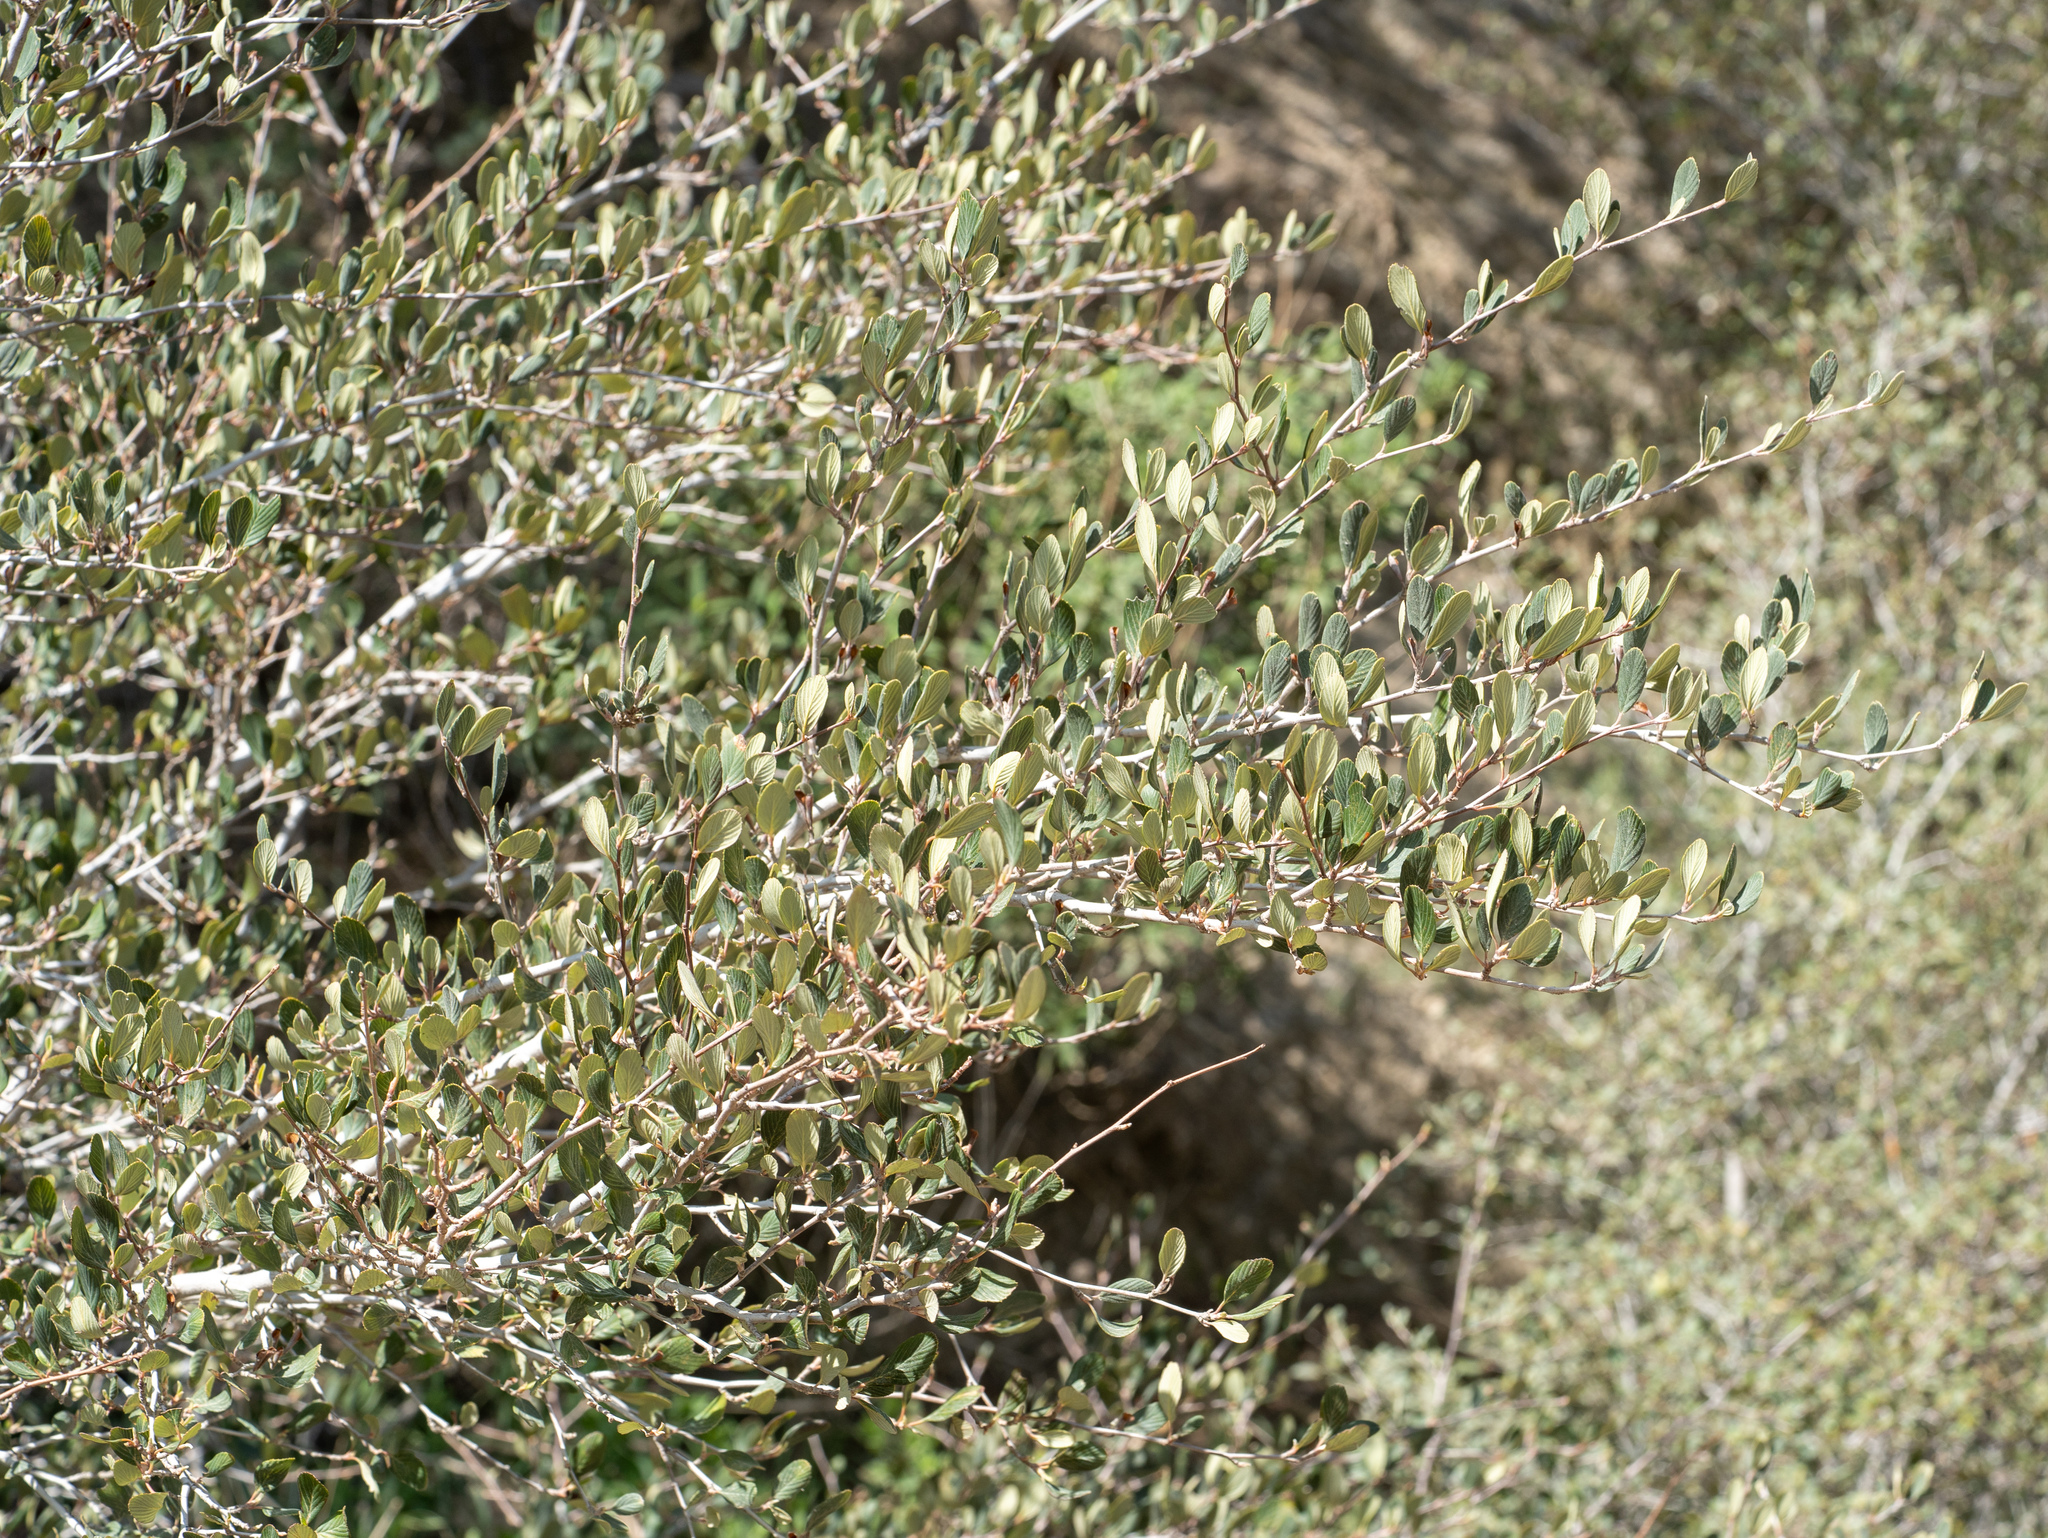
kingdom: Plantae
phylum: Tracheophyta
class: Magnoliopsida
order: Rosales
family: Rosaceae
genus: Cercocarpus
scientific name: Cercocarpus betuloides
